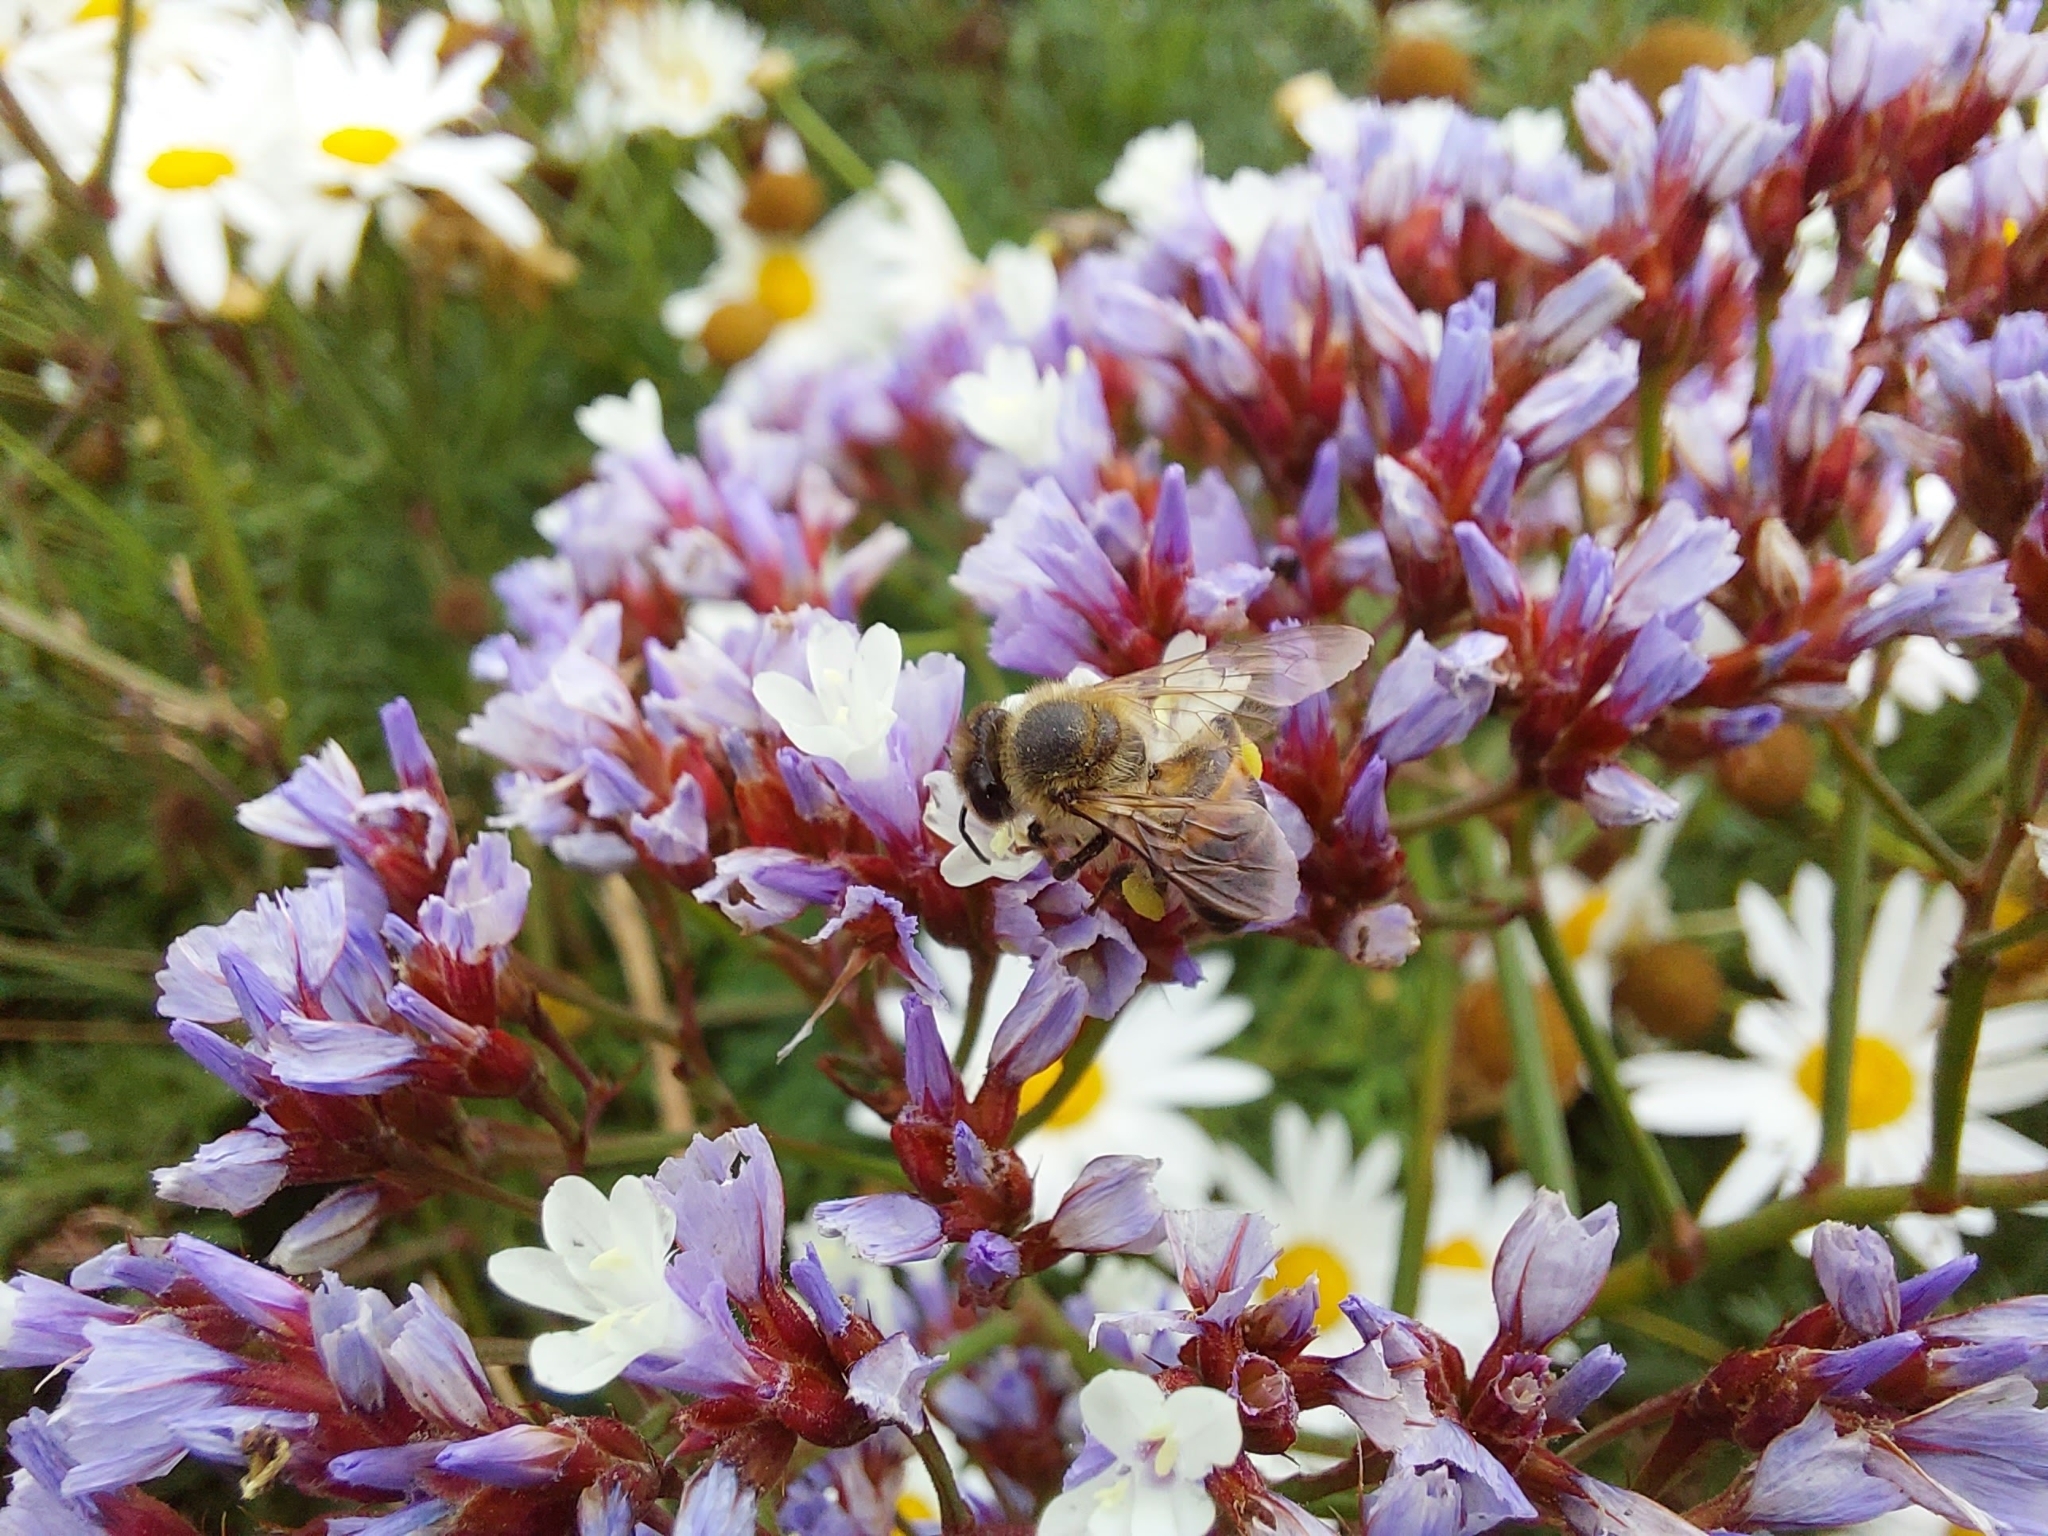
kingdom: Animalia
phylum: Arthropoda
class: Insecta
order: Hymenoptera
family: Apidae
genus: Apis
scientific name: Apis mellifera
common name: Honey bee
